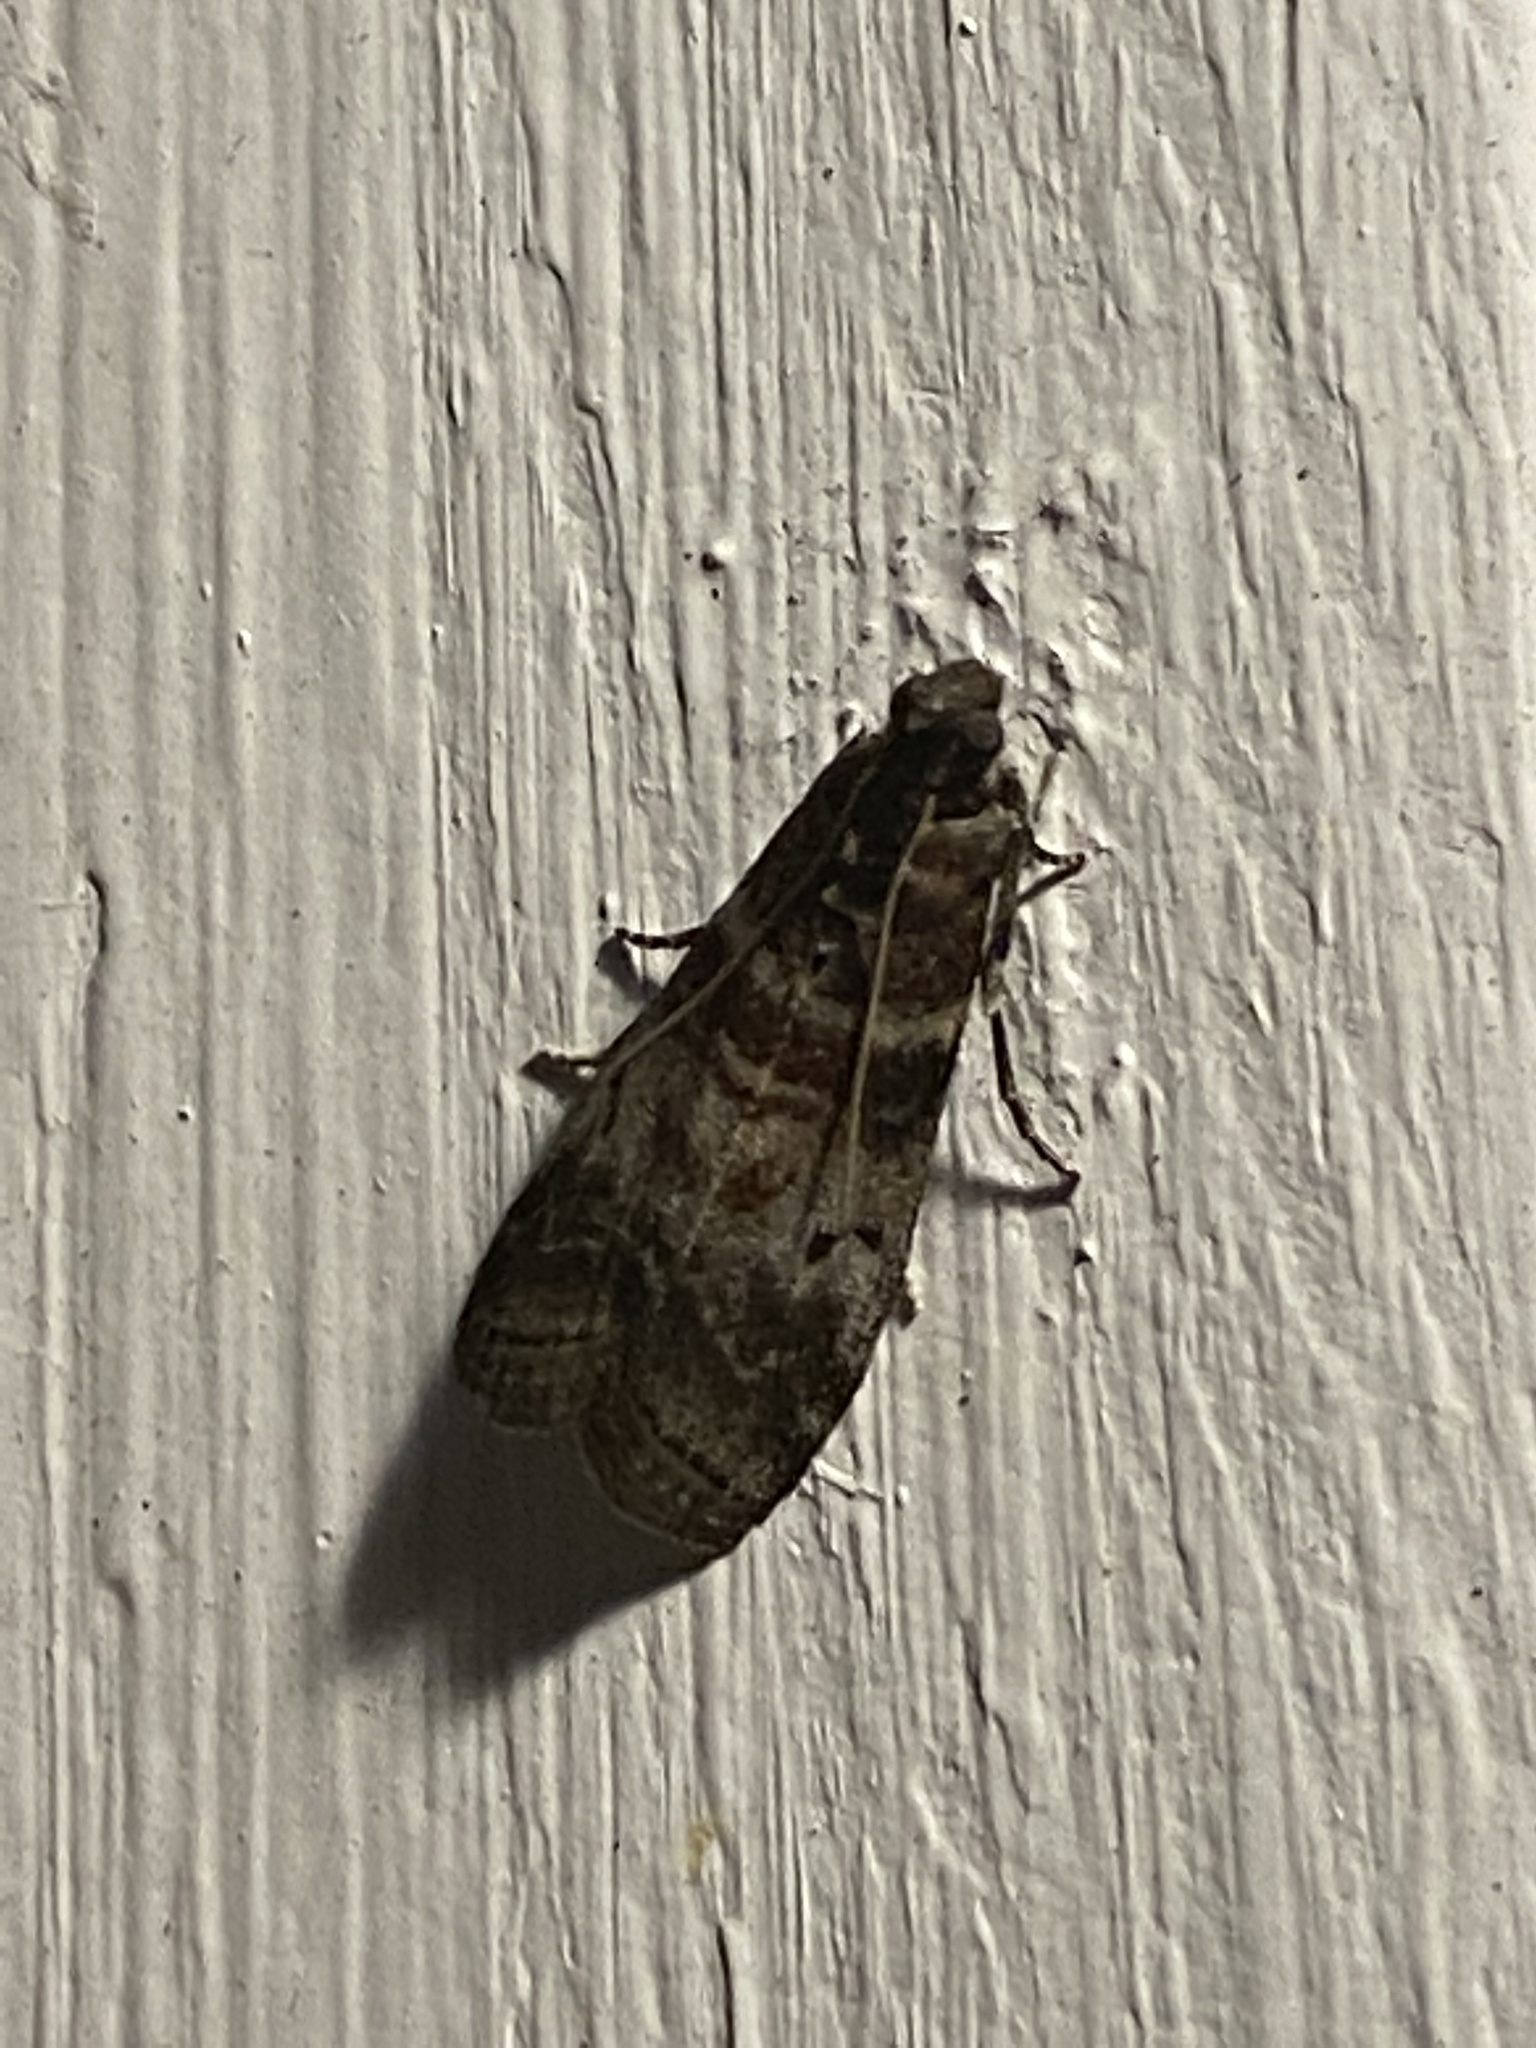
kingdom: Animalia
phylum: Arthropoda
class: Insecta
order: Lepidoptera
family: Pyralidae
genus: Sciota
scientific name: Sciota uvinella
